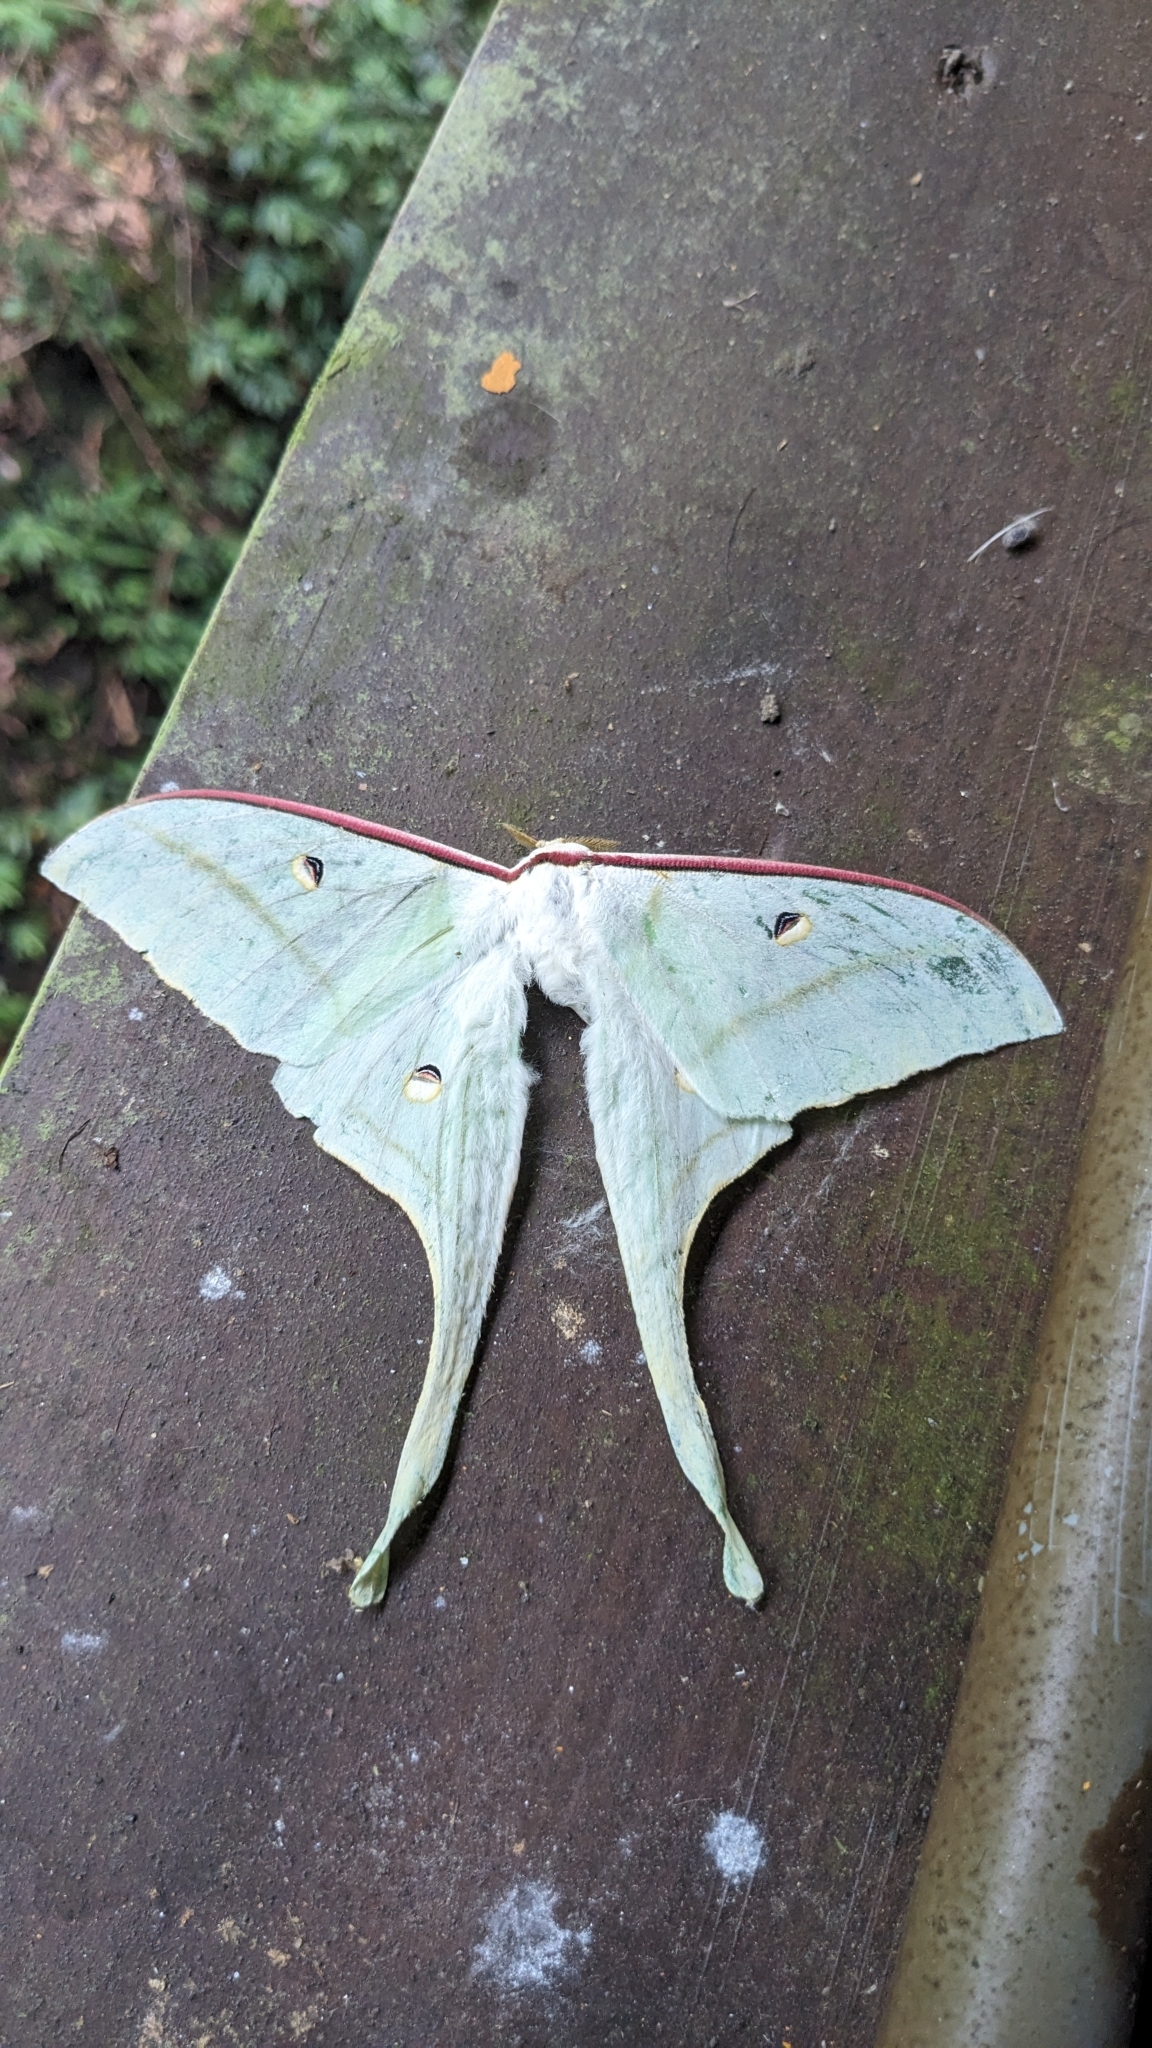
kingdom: Animalia
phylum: Arthropoda
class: Insecta
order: Lepidoptera
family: Saturniidae
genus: Actias
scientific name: Actias ningpoana
